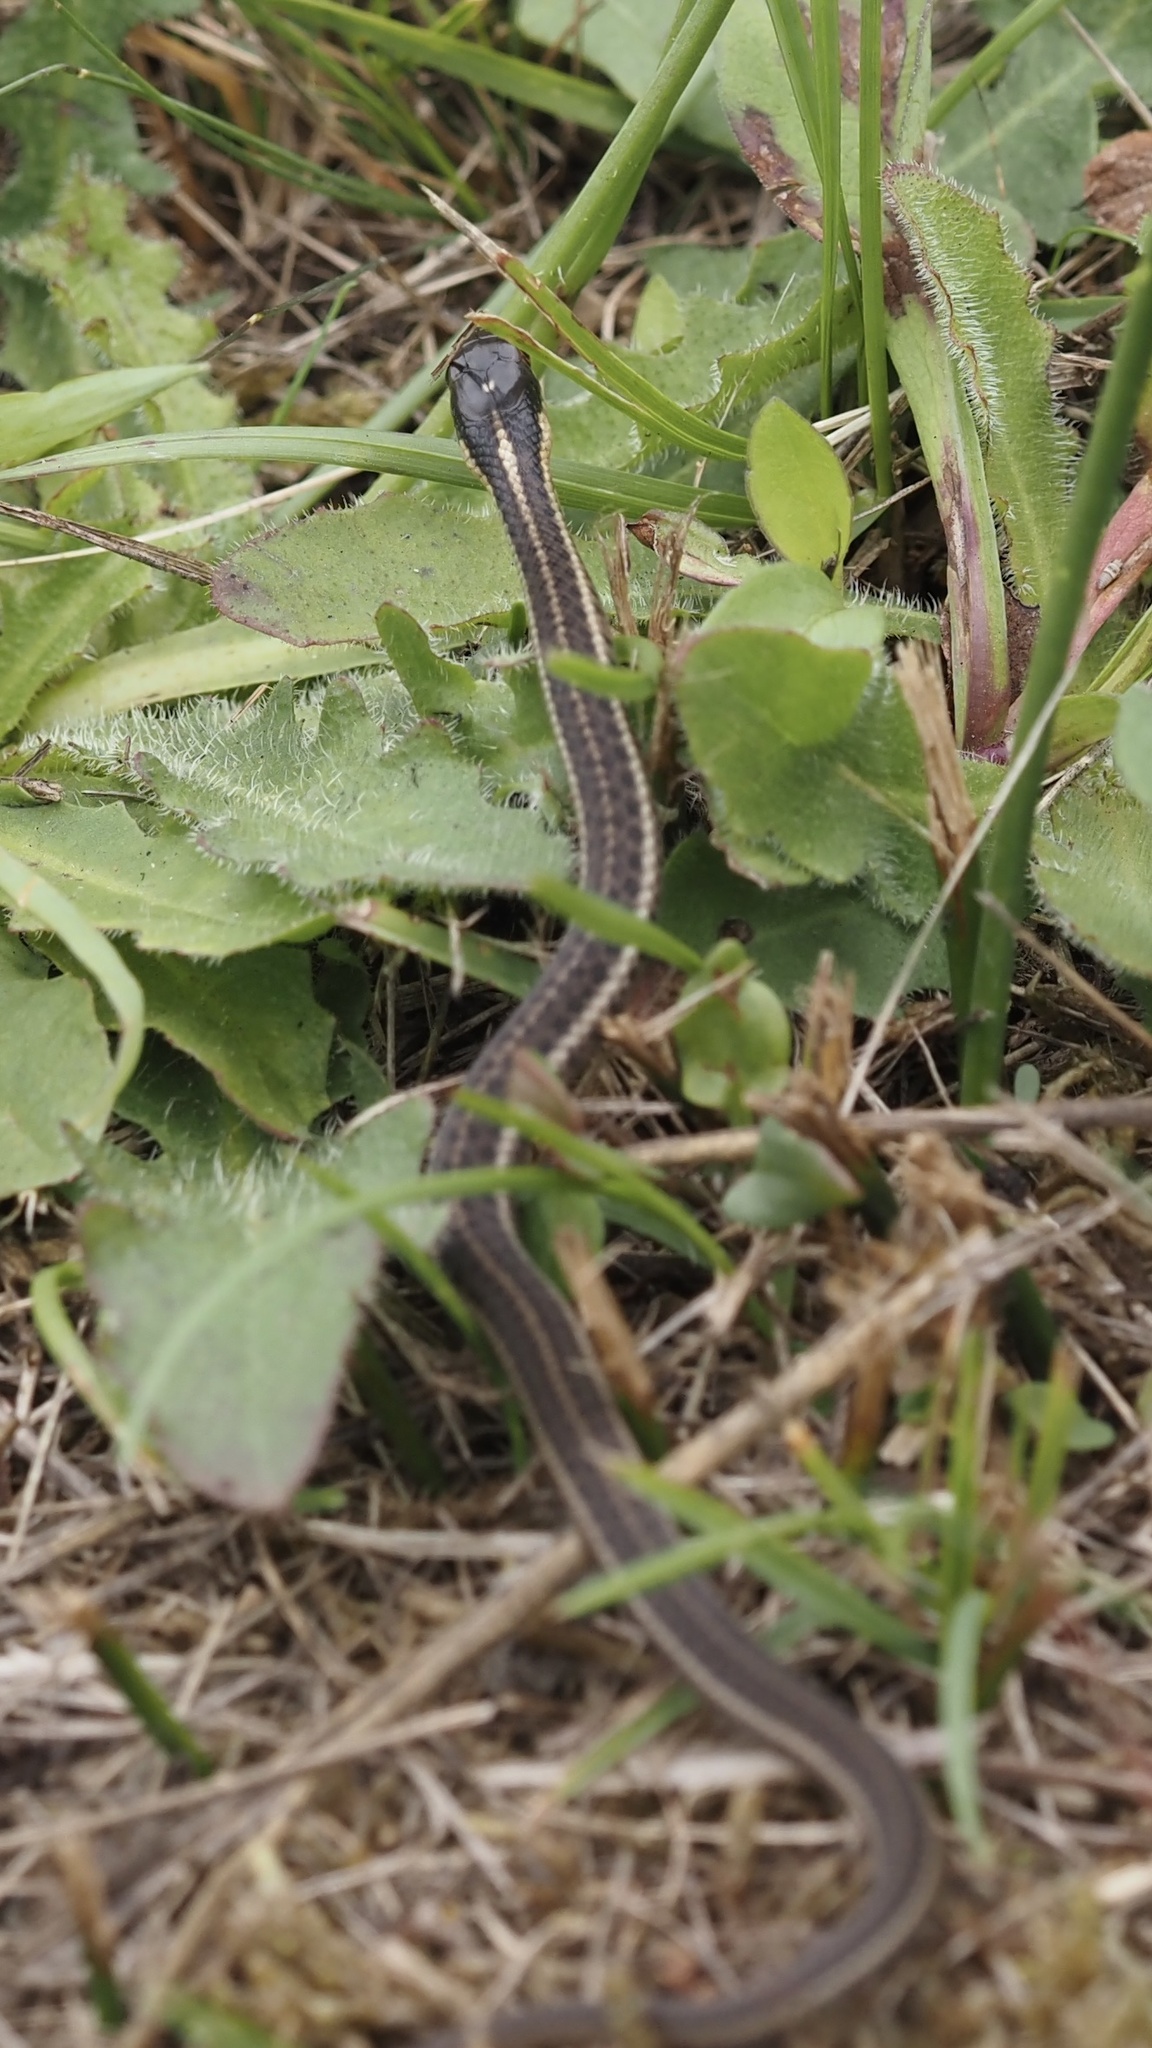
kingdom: Animalia
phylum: Chordata
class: Squamata
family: Colubridae
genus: Thamnophis
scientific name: Thamnophis ordinoides
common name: Northwestern garter snake
